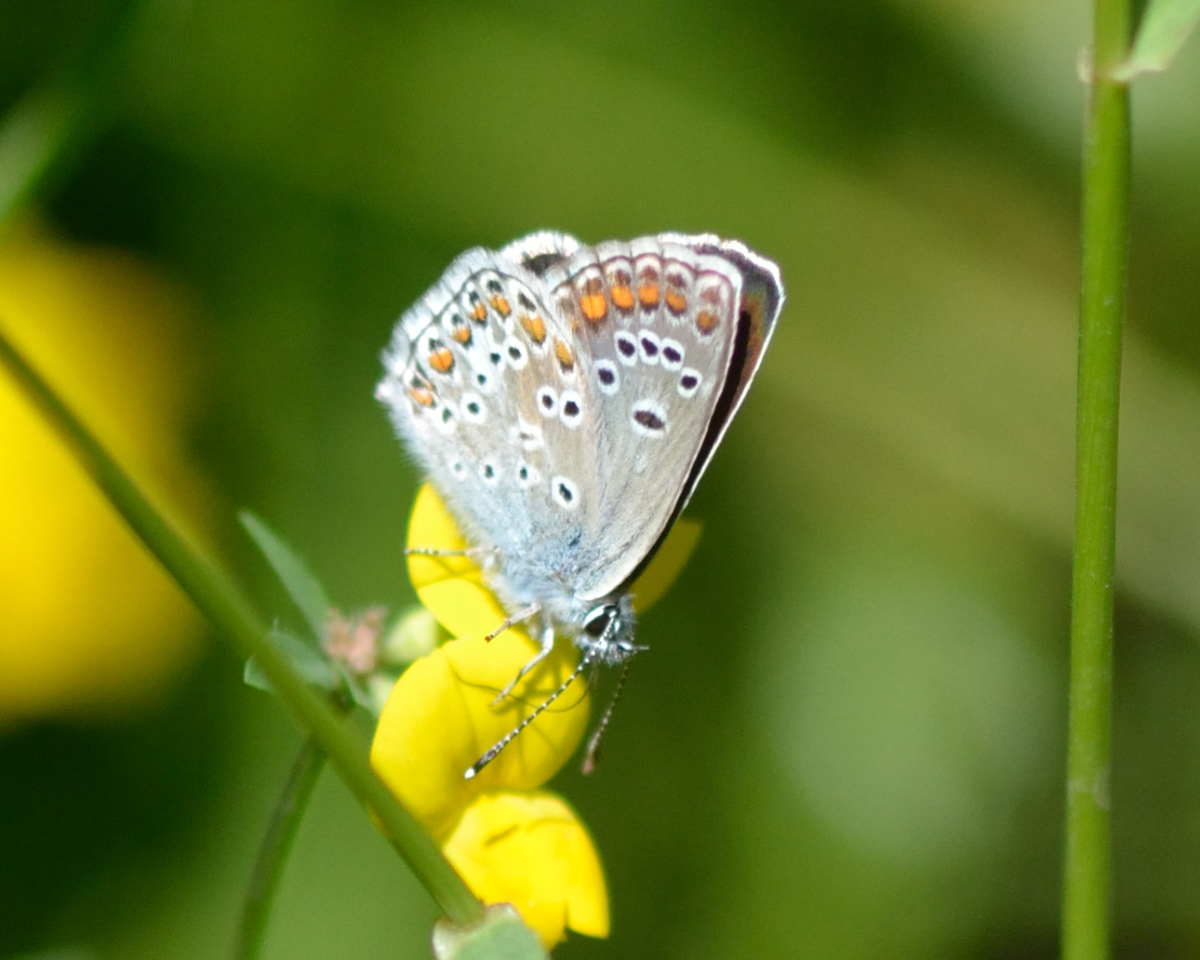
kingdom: Animalia
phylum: Arthropoda
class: Insecta
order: Lepidoptera
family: Lycaenidae
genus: Aricia
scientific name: Aricia artaxerxes
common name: Northern brown argus
